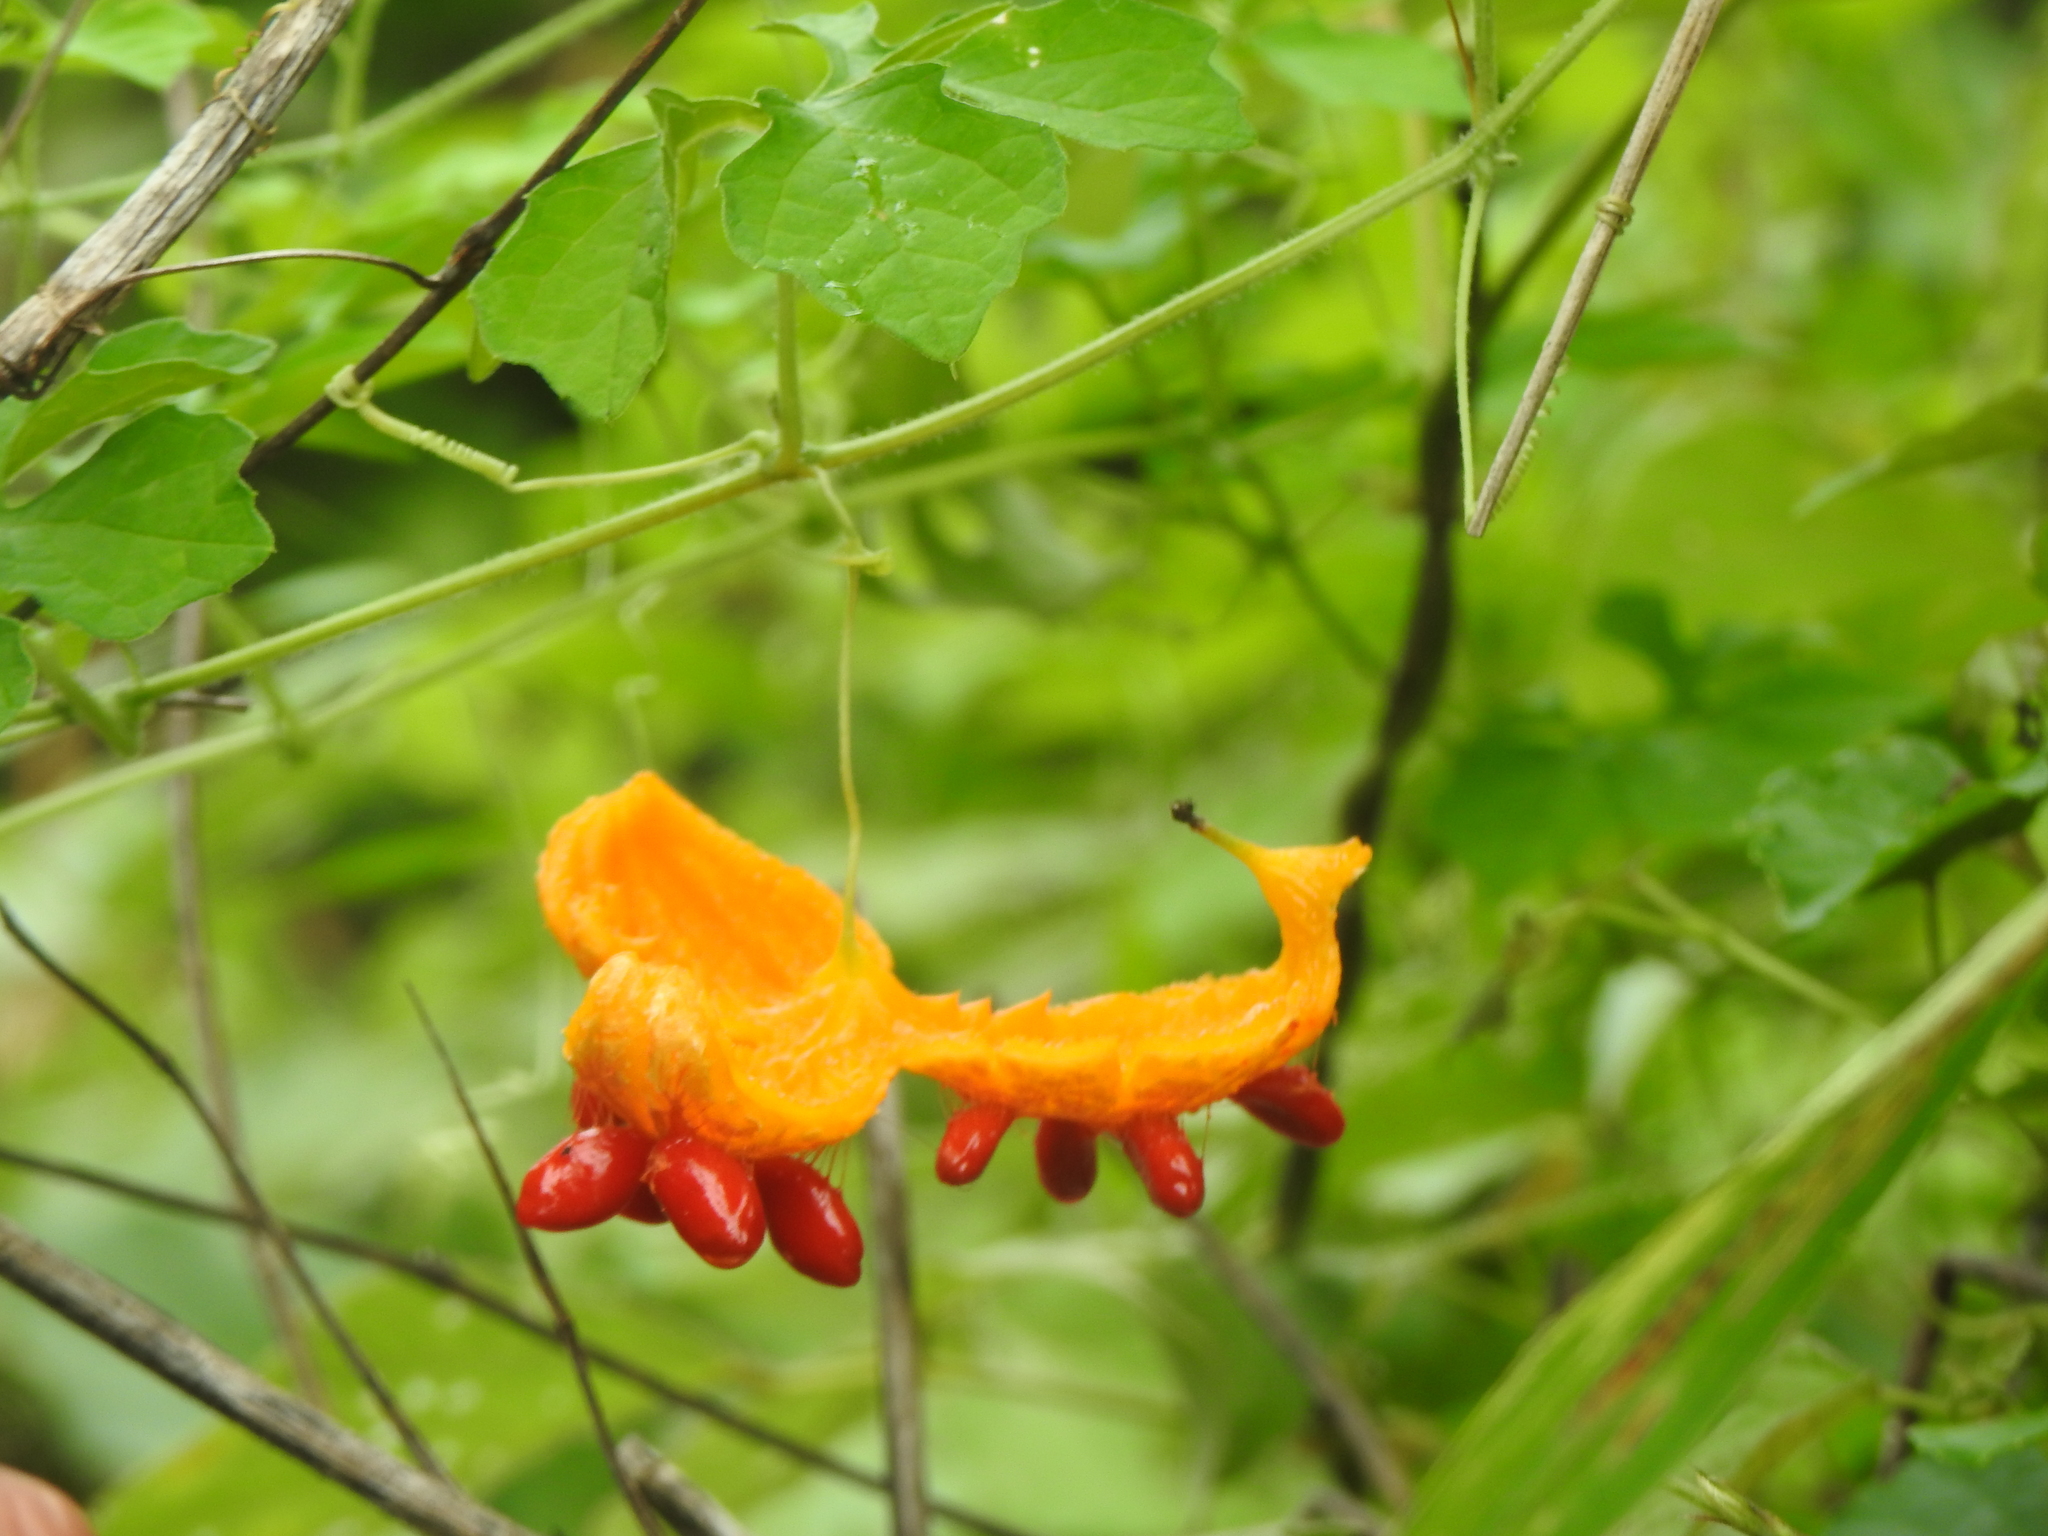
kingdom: Plantae
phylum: Tracheophyta
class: Magnoliopsida
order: Cucurbitales
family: Cucurbitaceae
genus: Momordica
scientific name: Momordica charantia
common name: Balsampear
